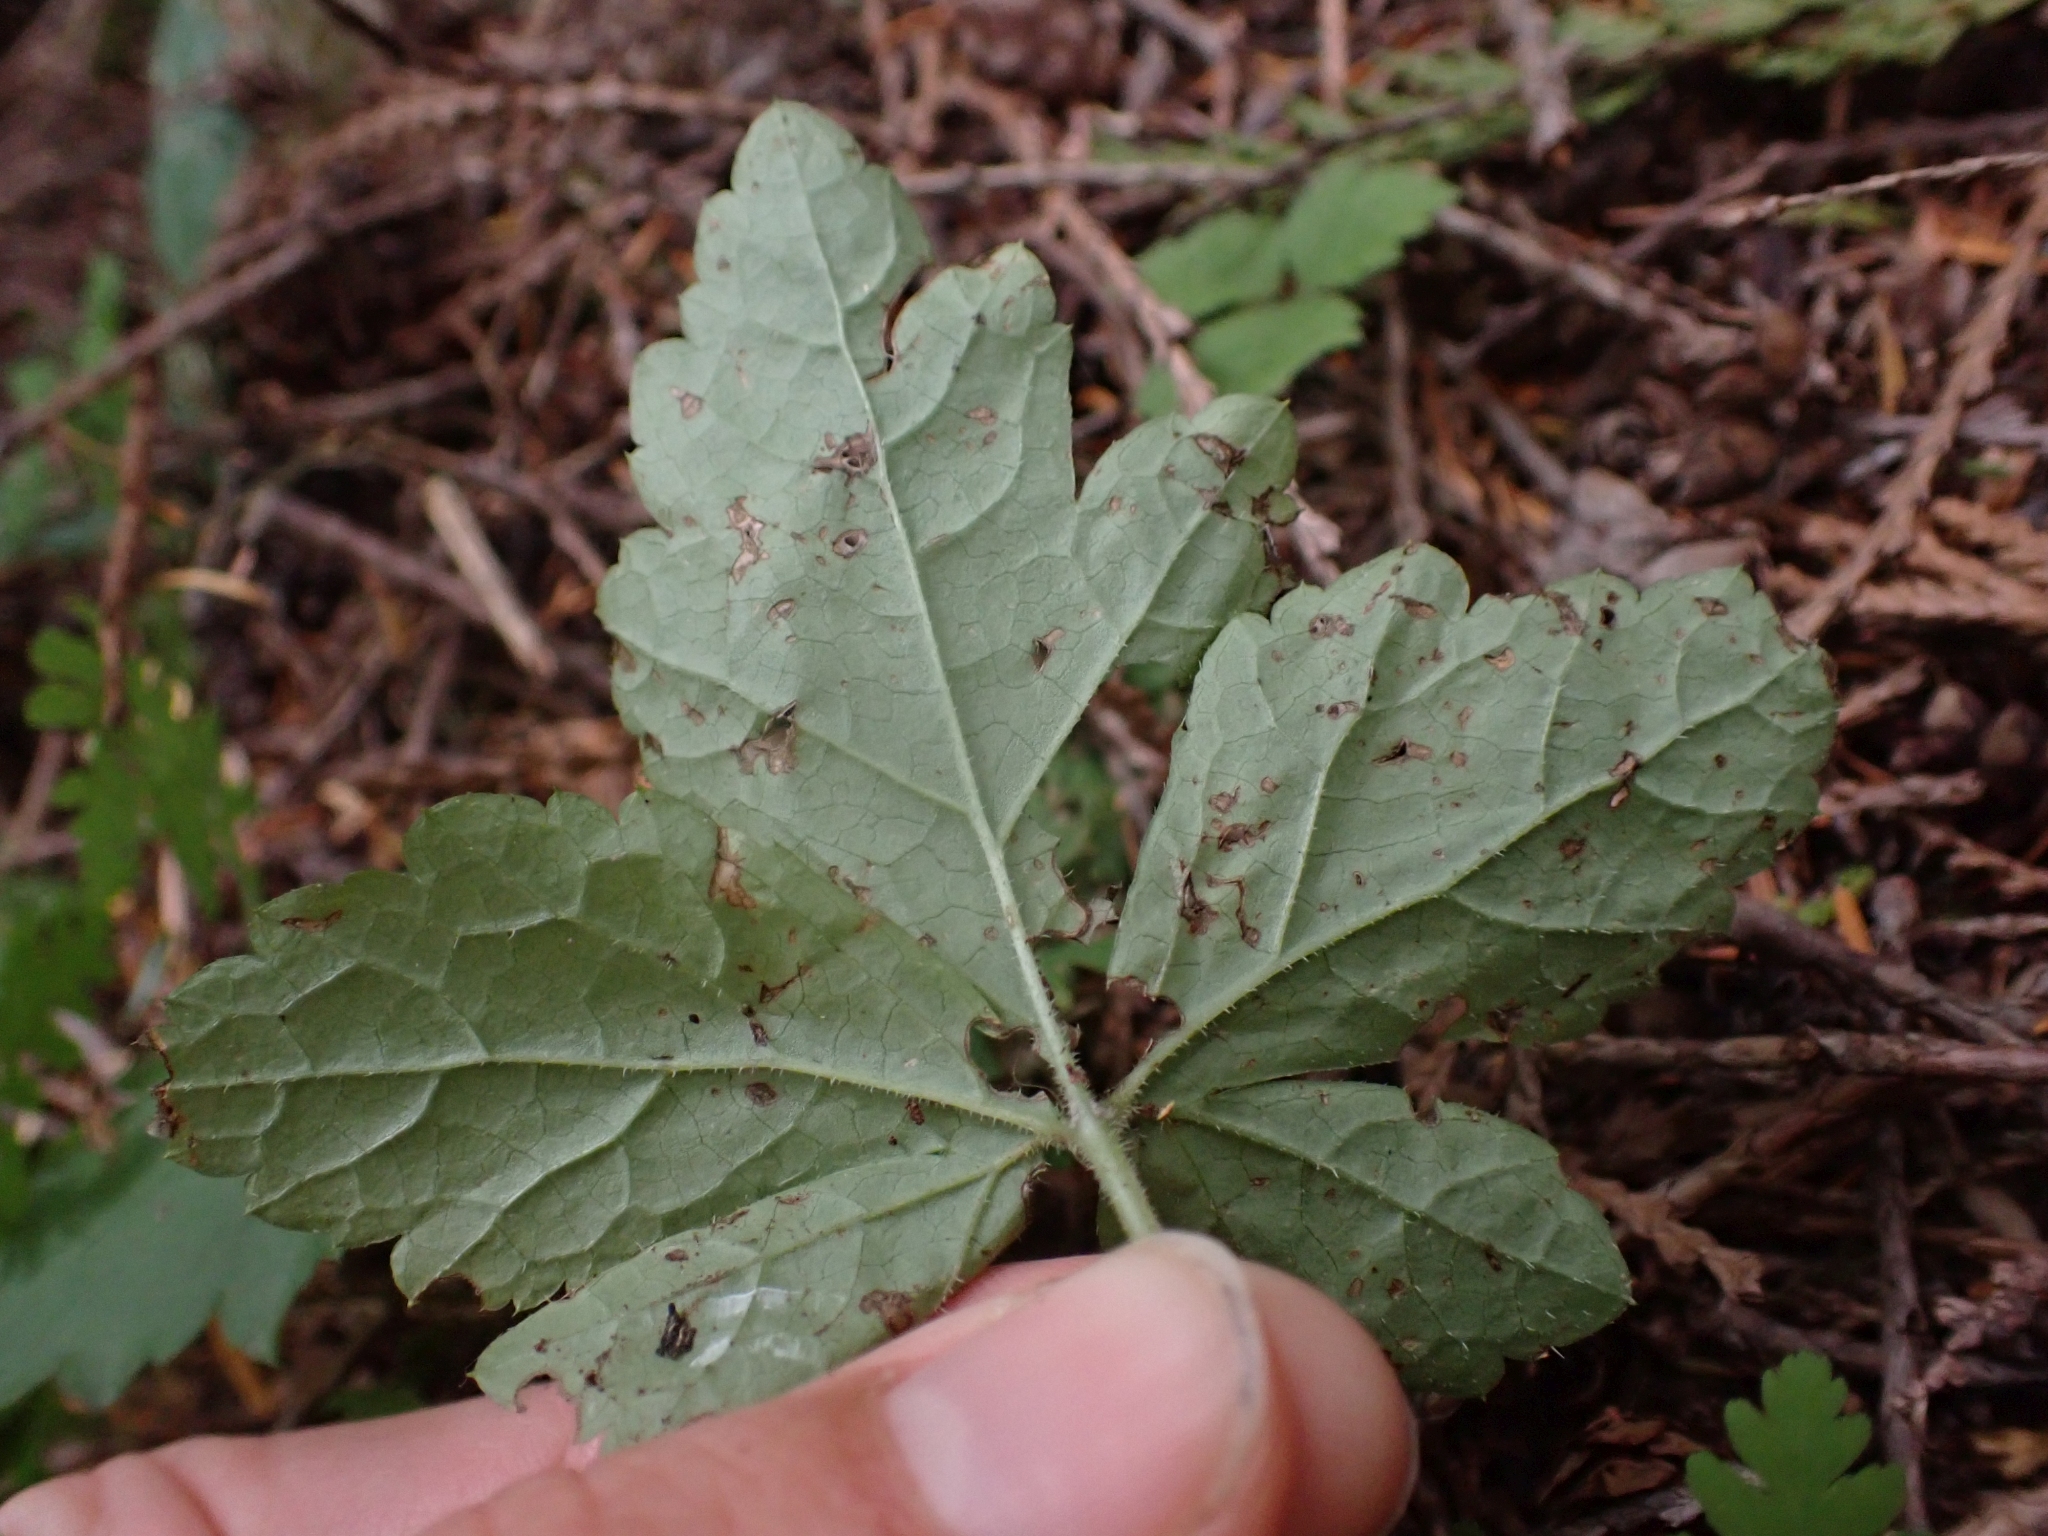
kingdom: Plantae
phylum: Tracheophyta
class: Magnoliopsida
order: Saxifragales
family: Saxifragaceae
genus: Tiarella
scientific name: Tiarella trifoliata
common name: Sugar-scoop
